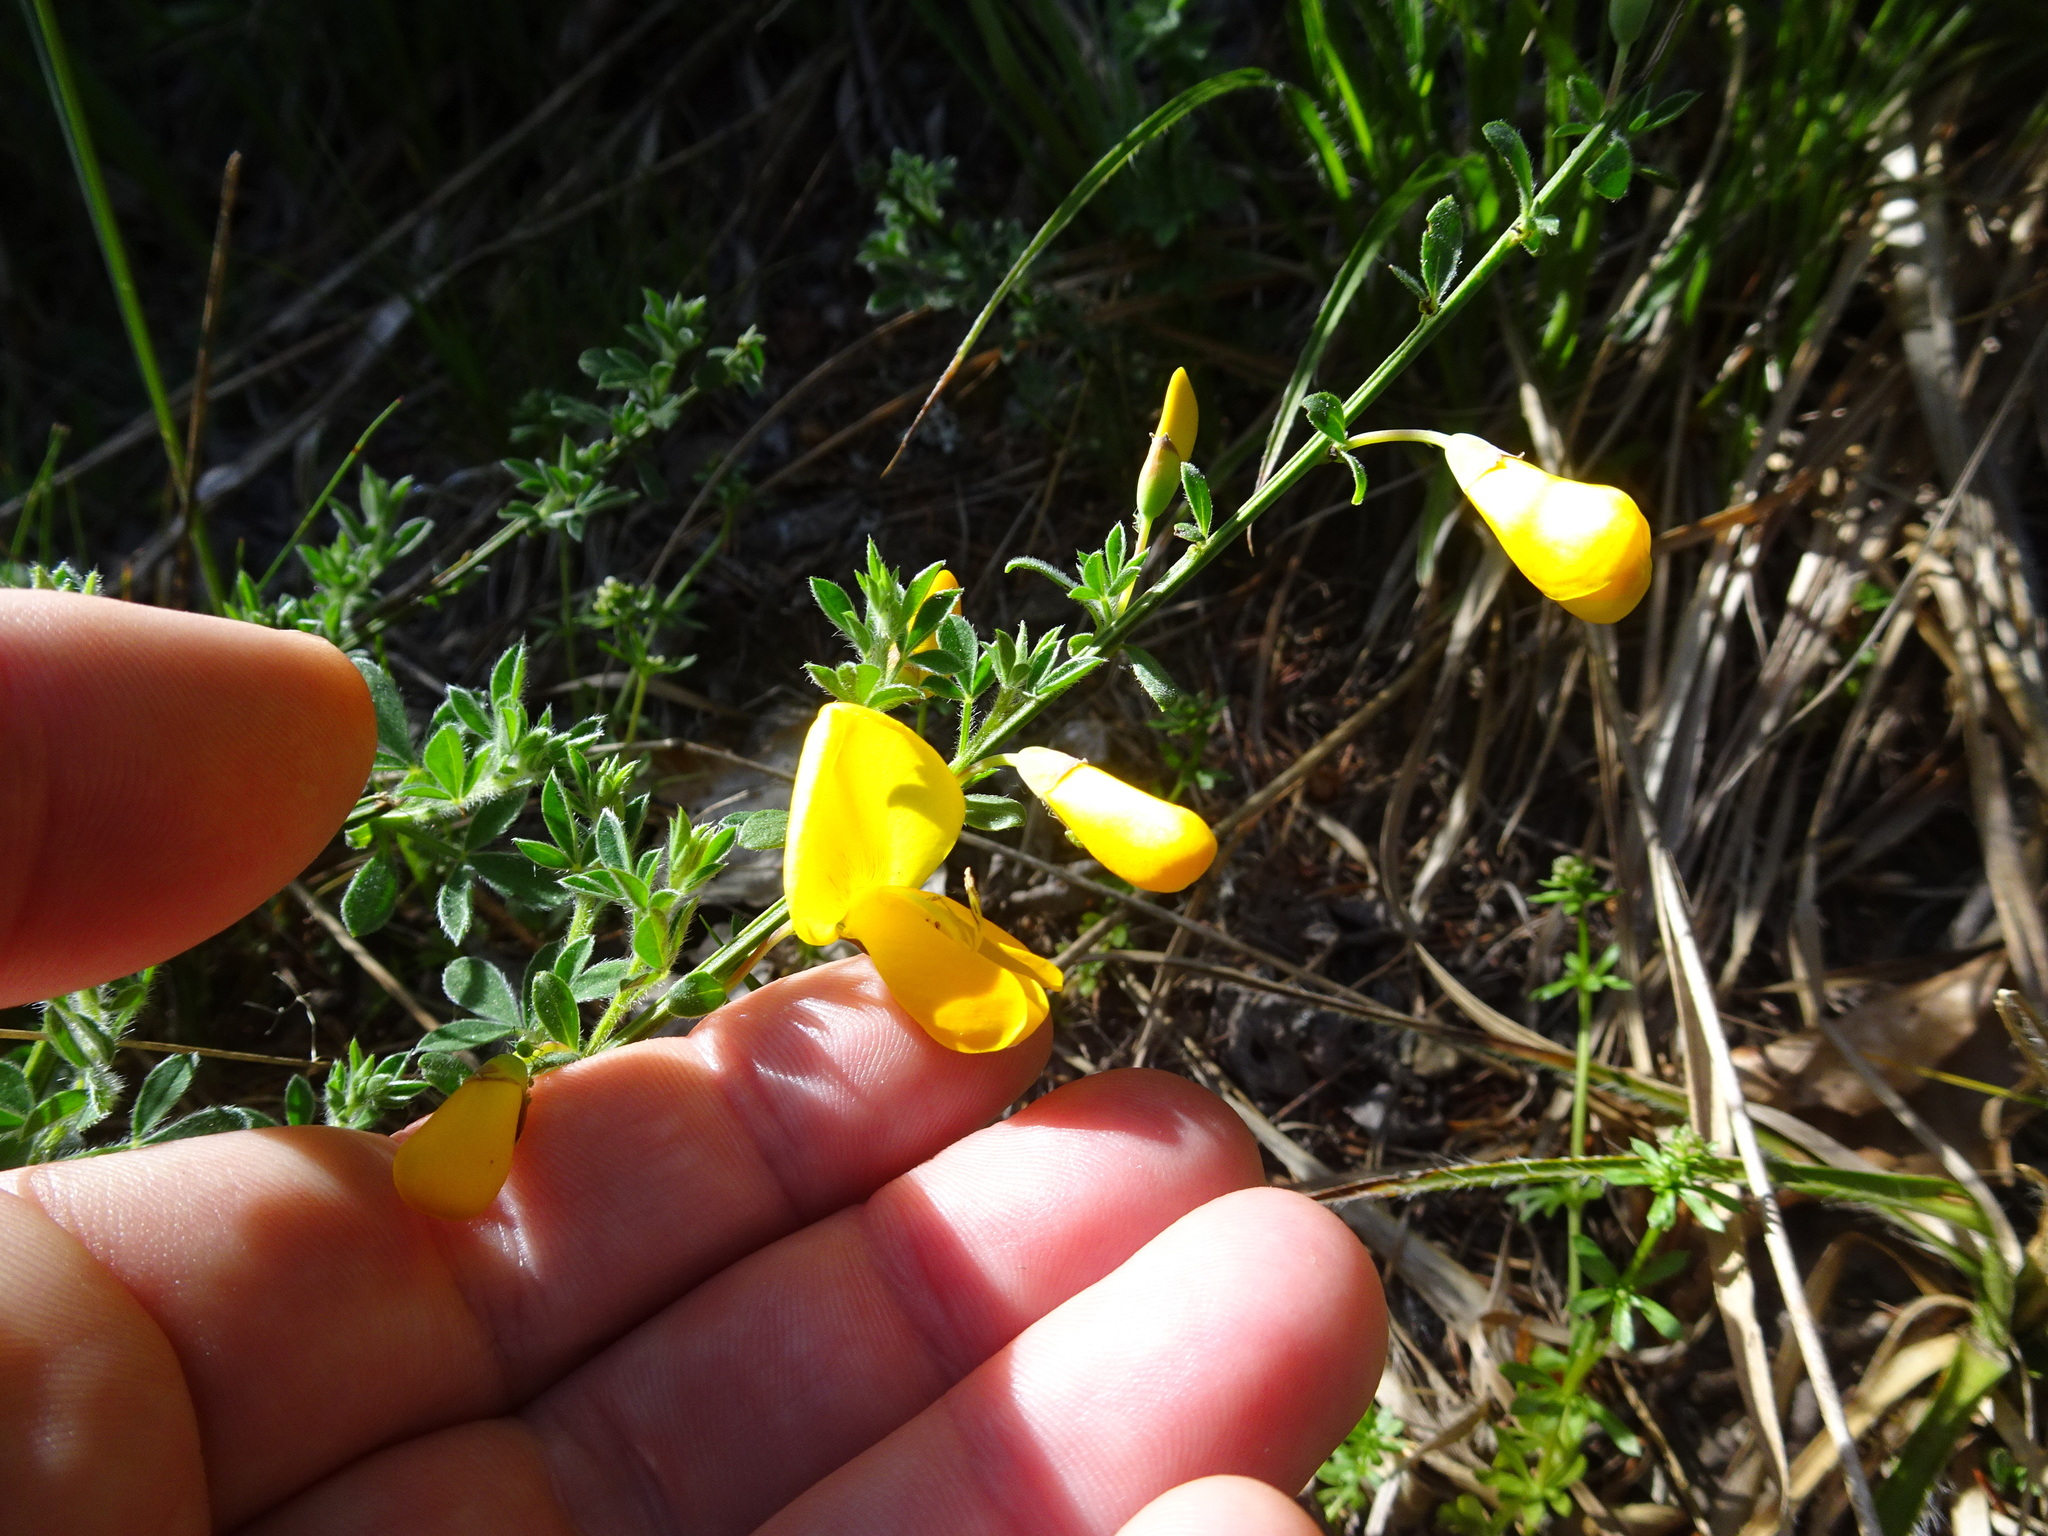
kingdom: Plantae
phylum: Tracheophyta
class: Magnoliopsida
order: Fabales
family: Fabaceae
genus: Cytisus
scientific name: Cytisus scoparius
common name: Scotch broom
